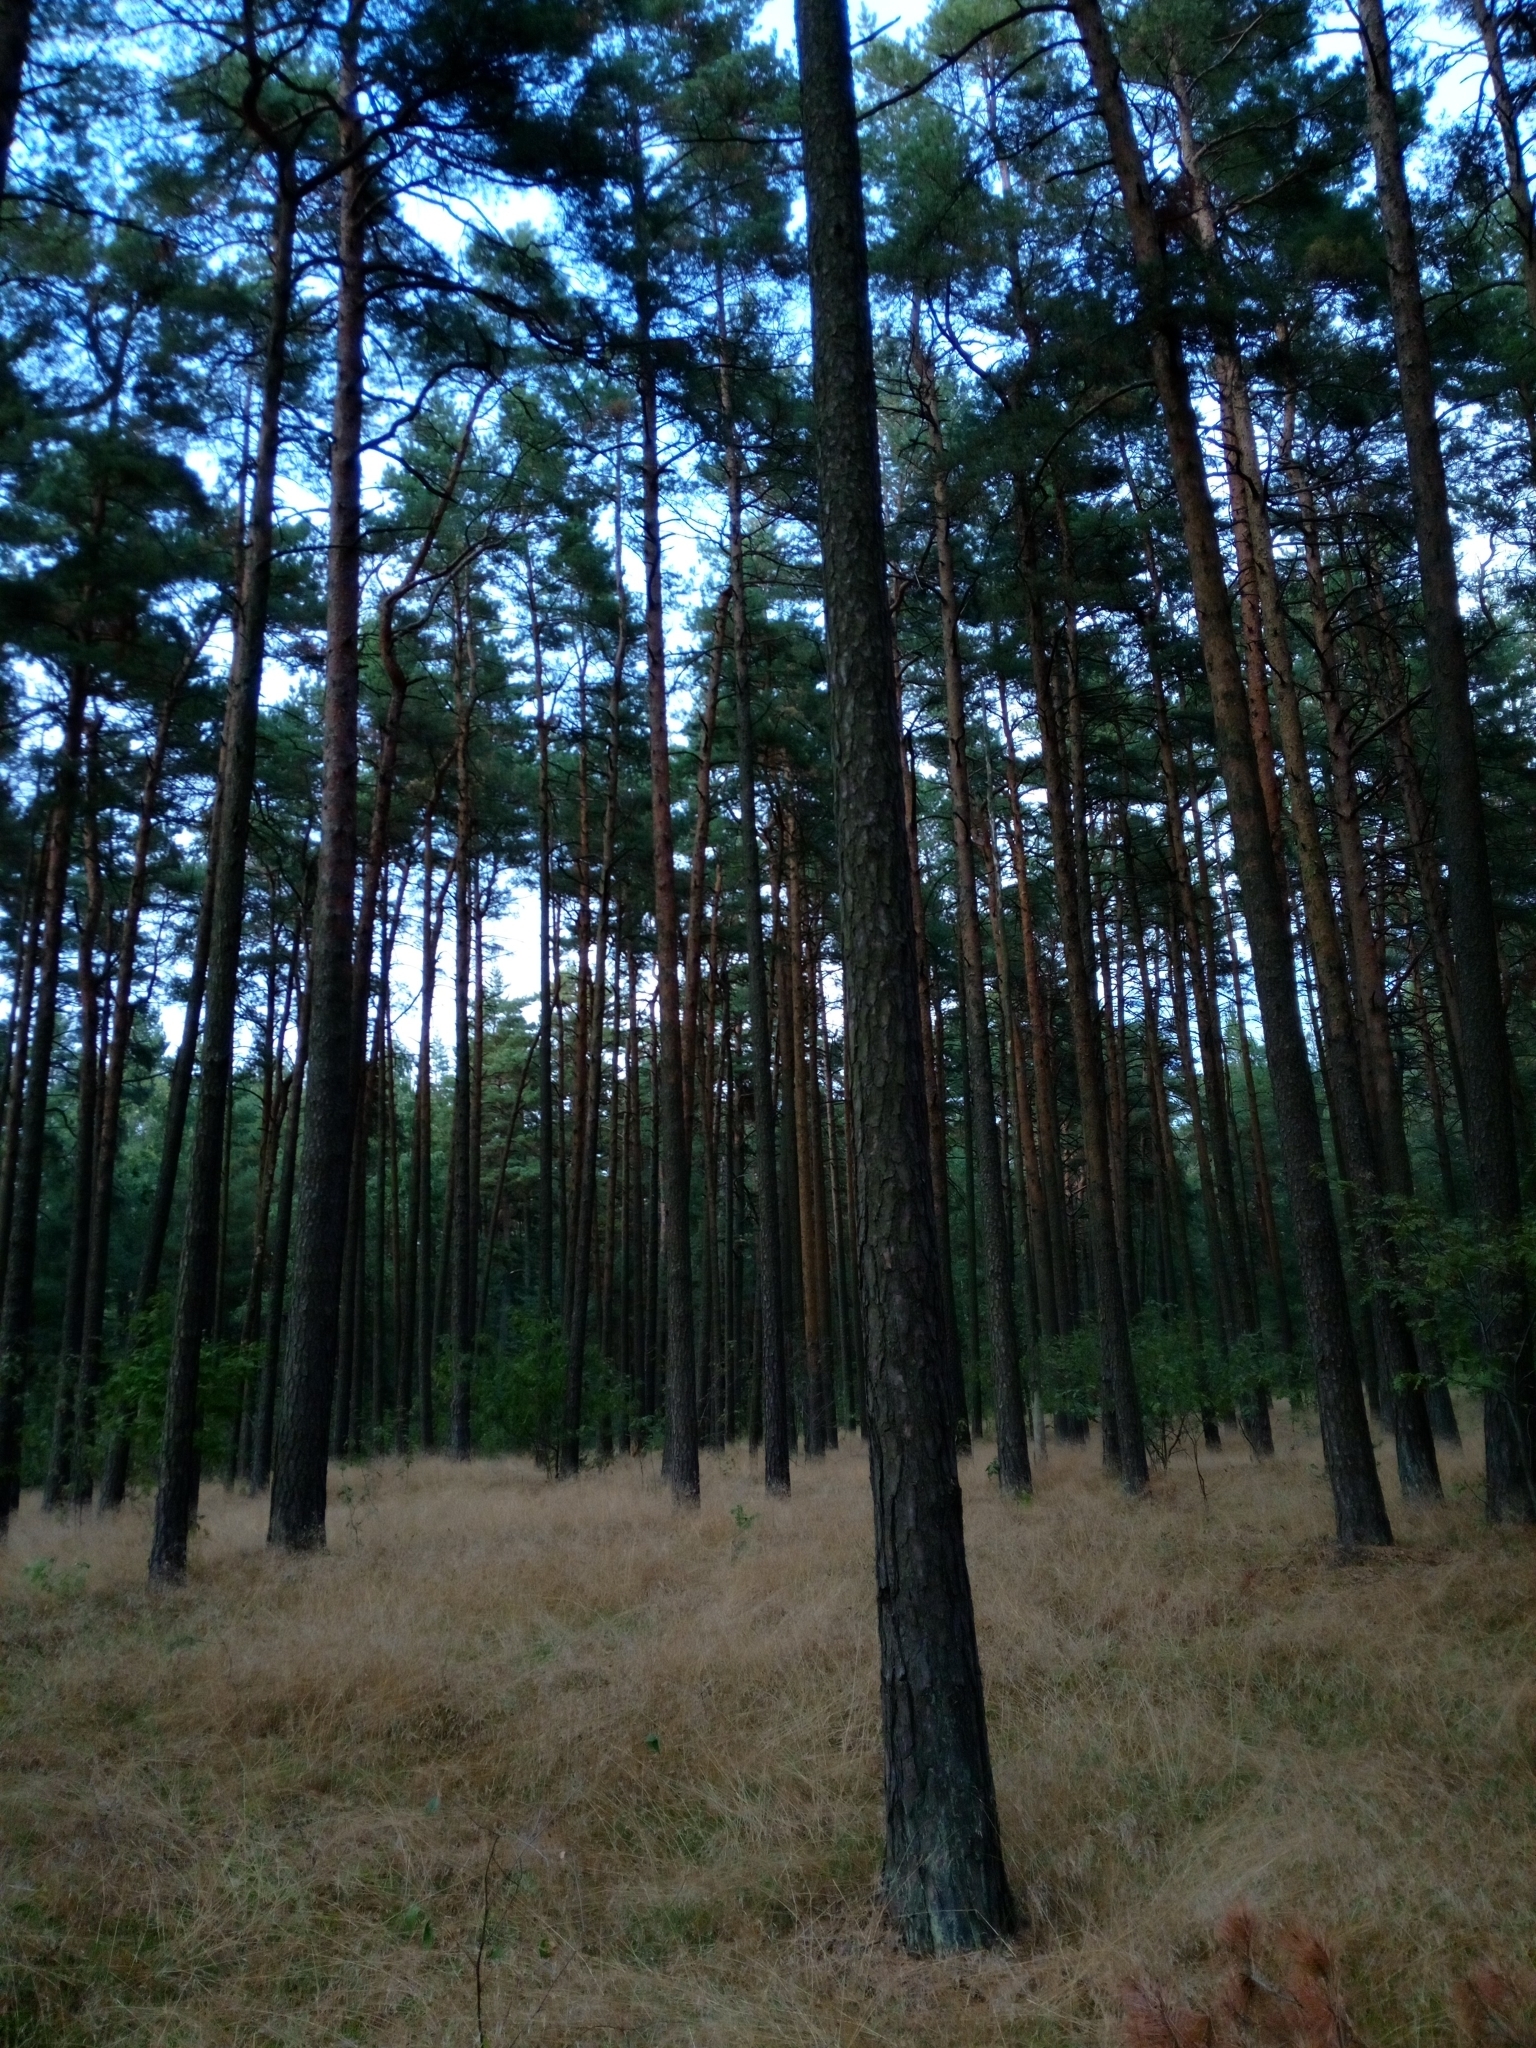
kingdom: Plantae
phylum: Tracheophyta
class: Pinopsida
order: Pinales
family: Pinaceae
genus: Pinus
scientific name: Pinus sylvestris
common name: Scots pine
